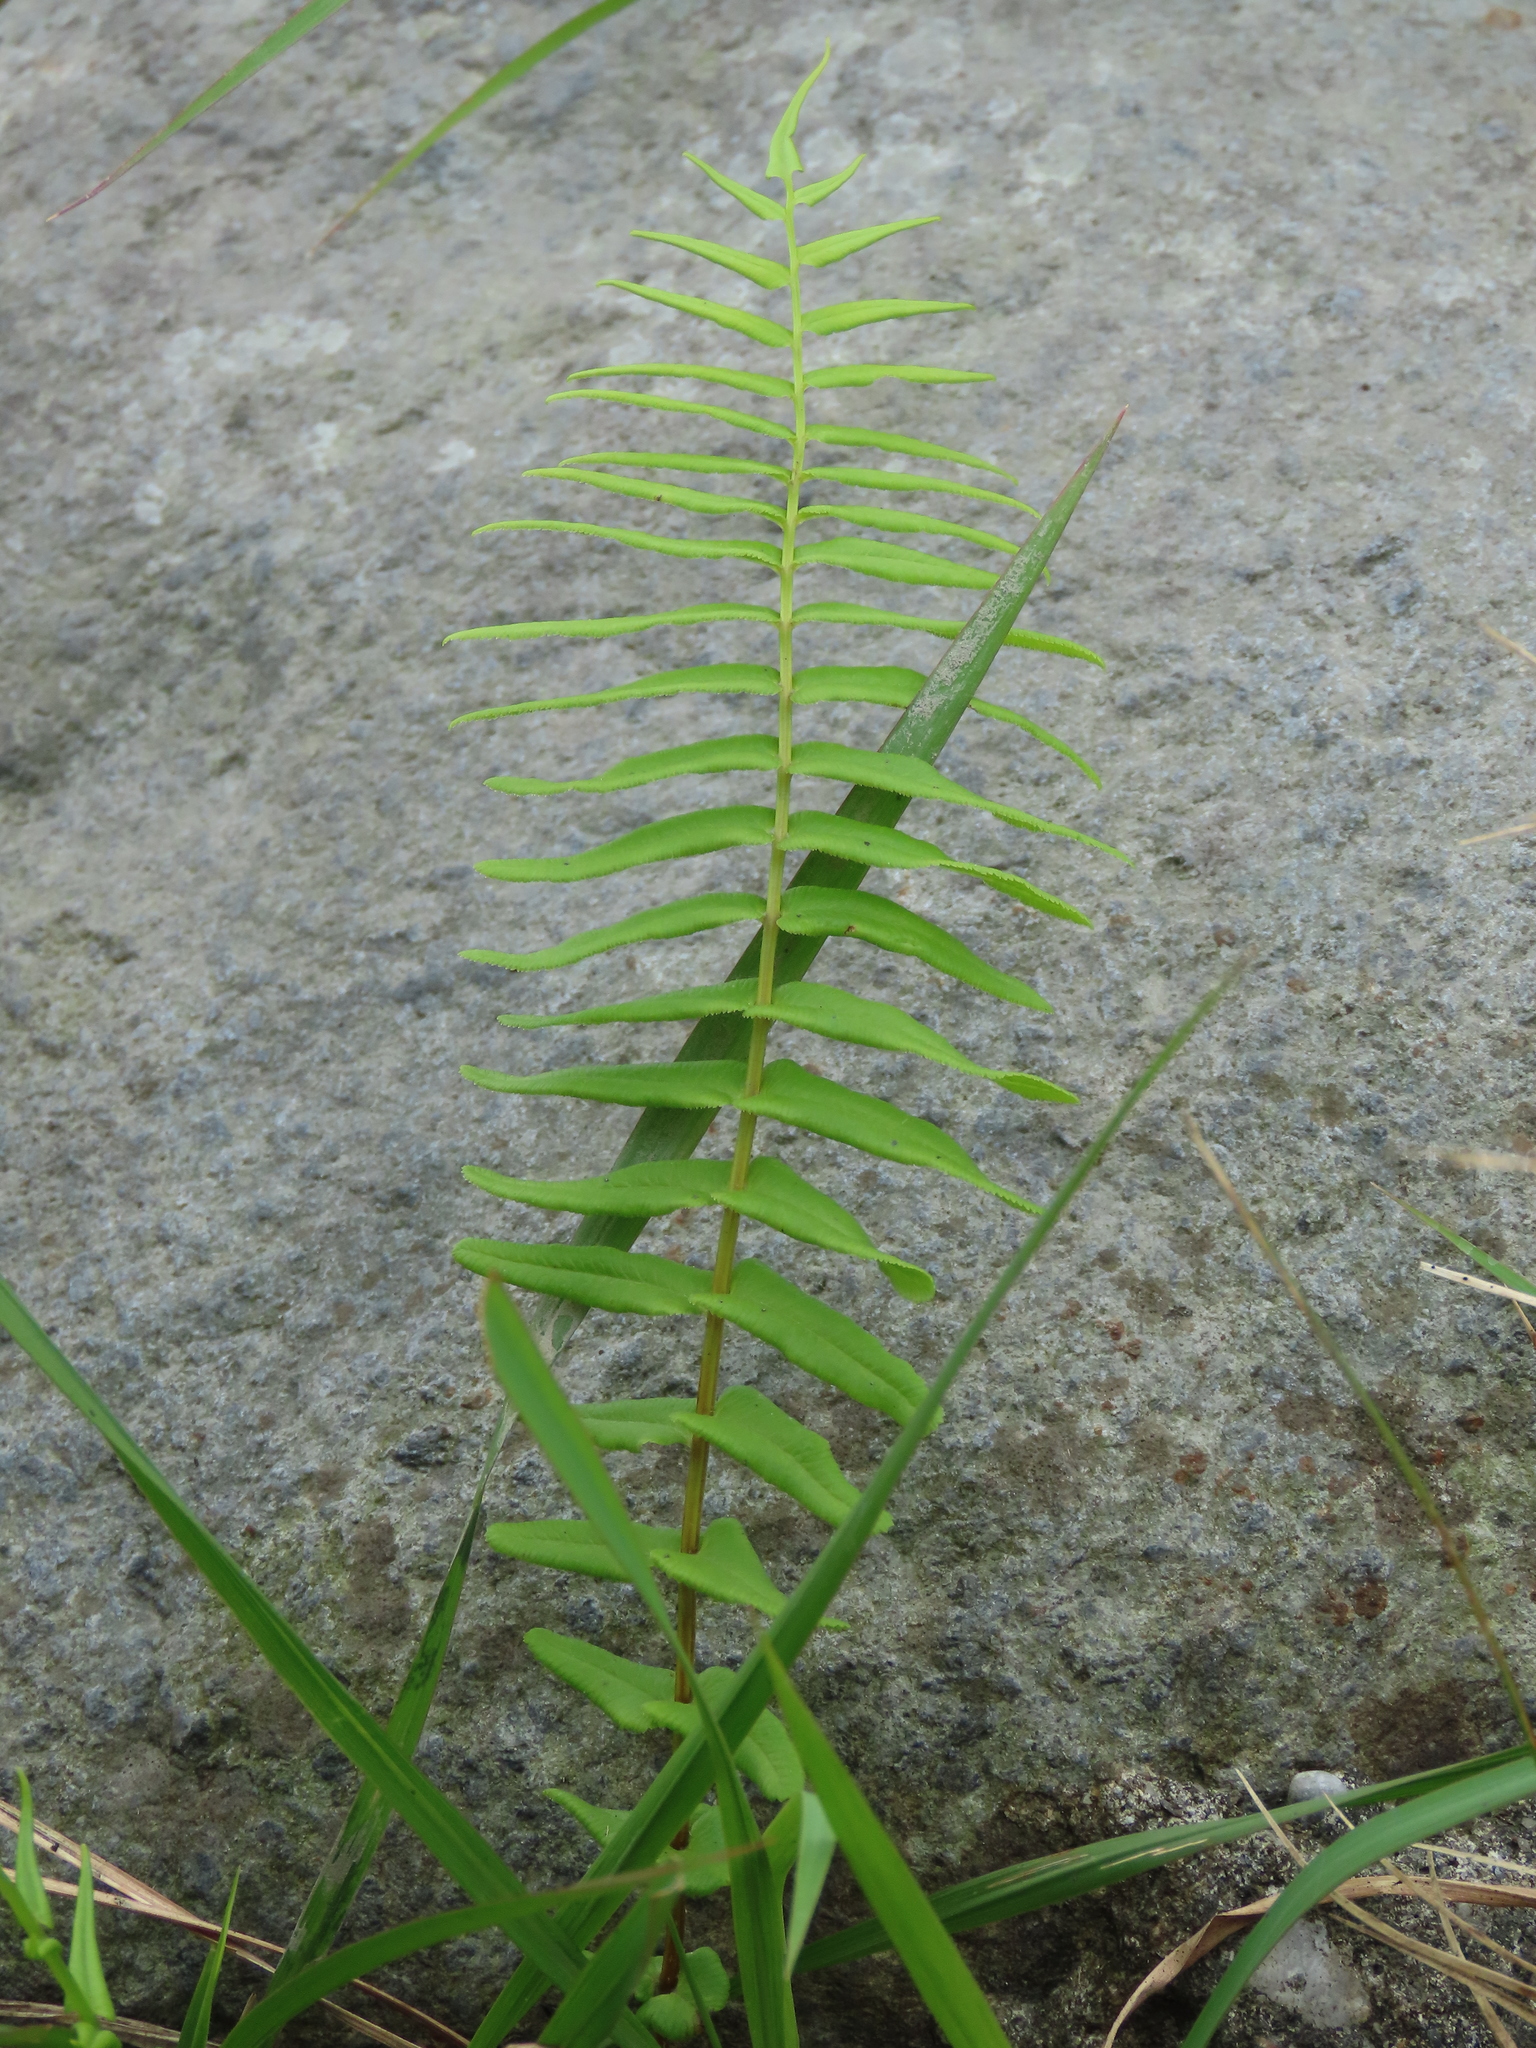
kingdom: Plantae
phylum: Tracheophyta
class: Polypodiopsida
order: Polypodiales
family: Pteridaceae
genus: Pteris
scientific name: Pteris vittata
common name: Ladder brake
